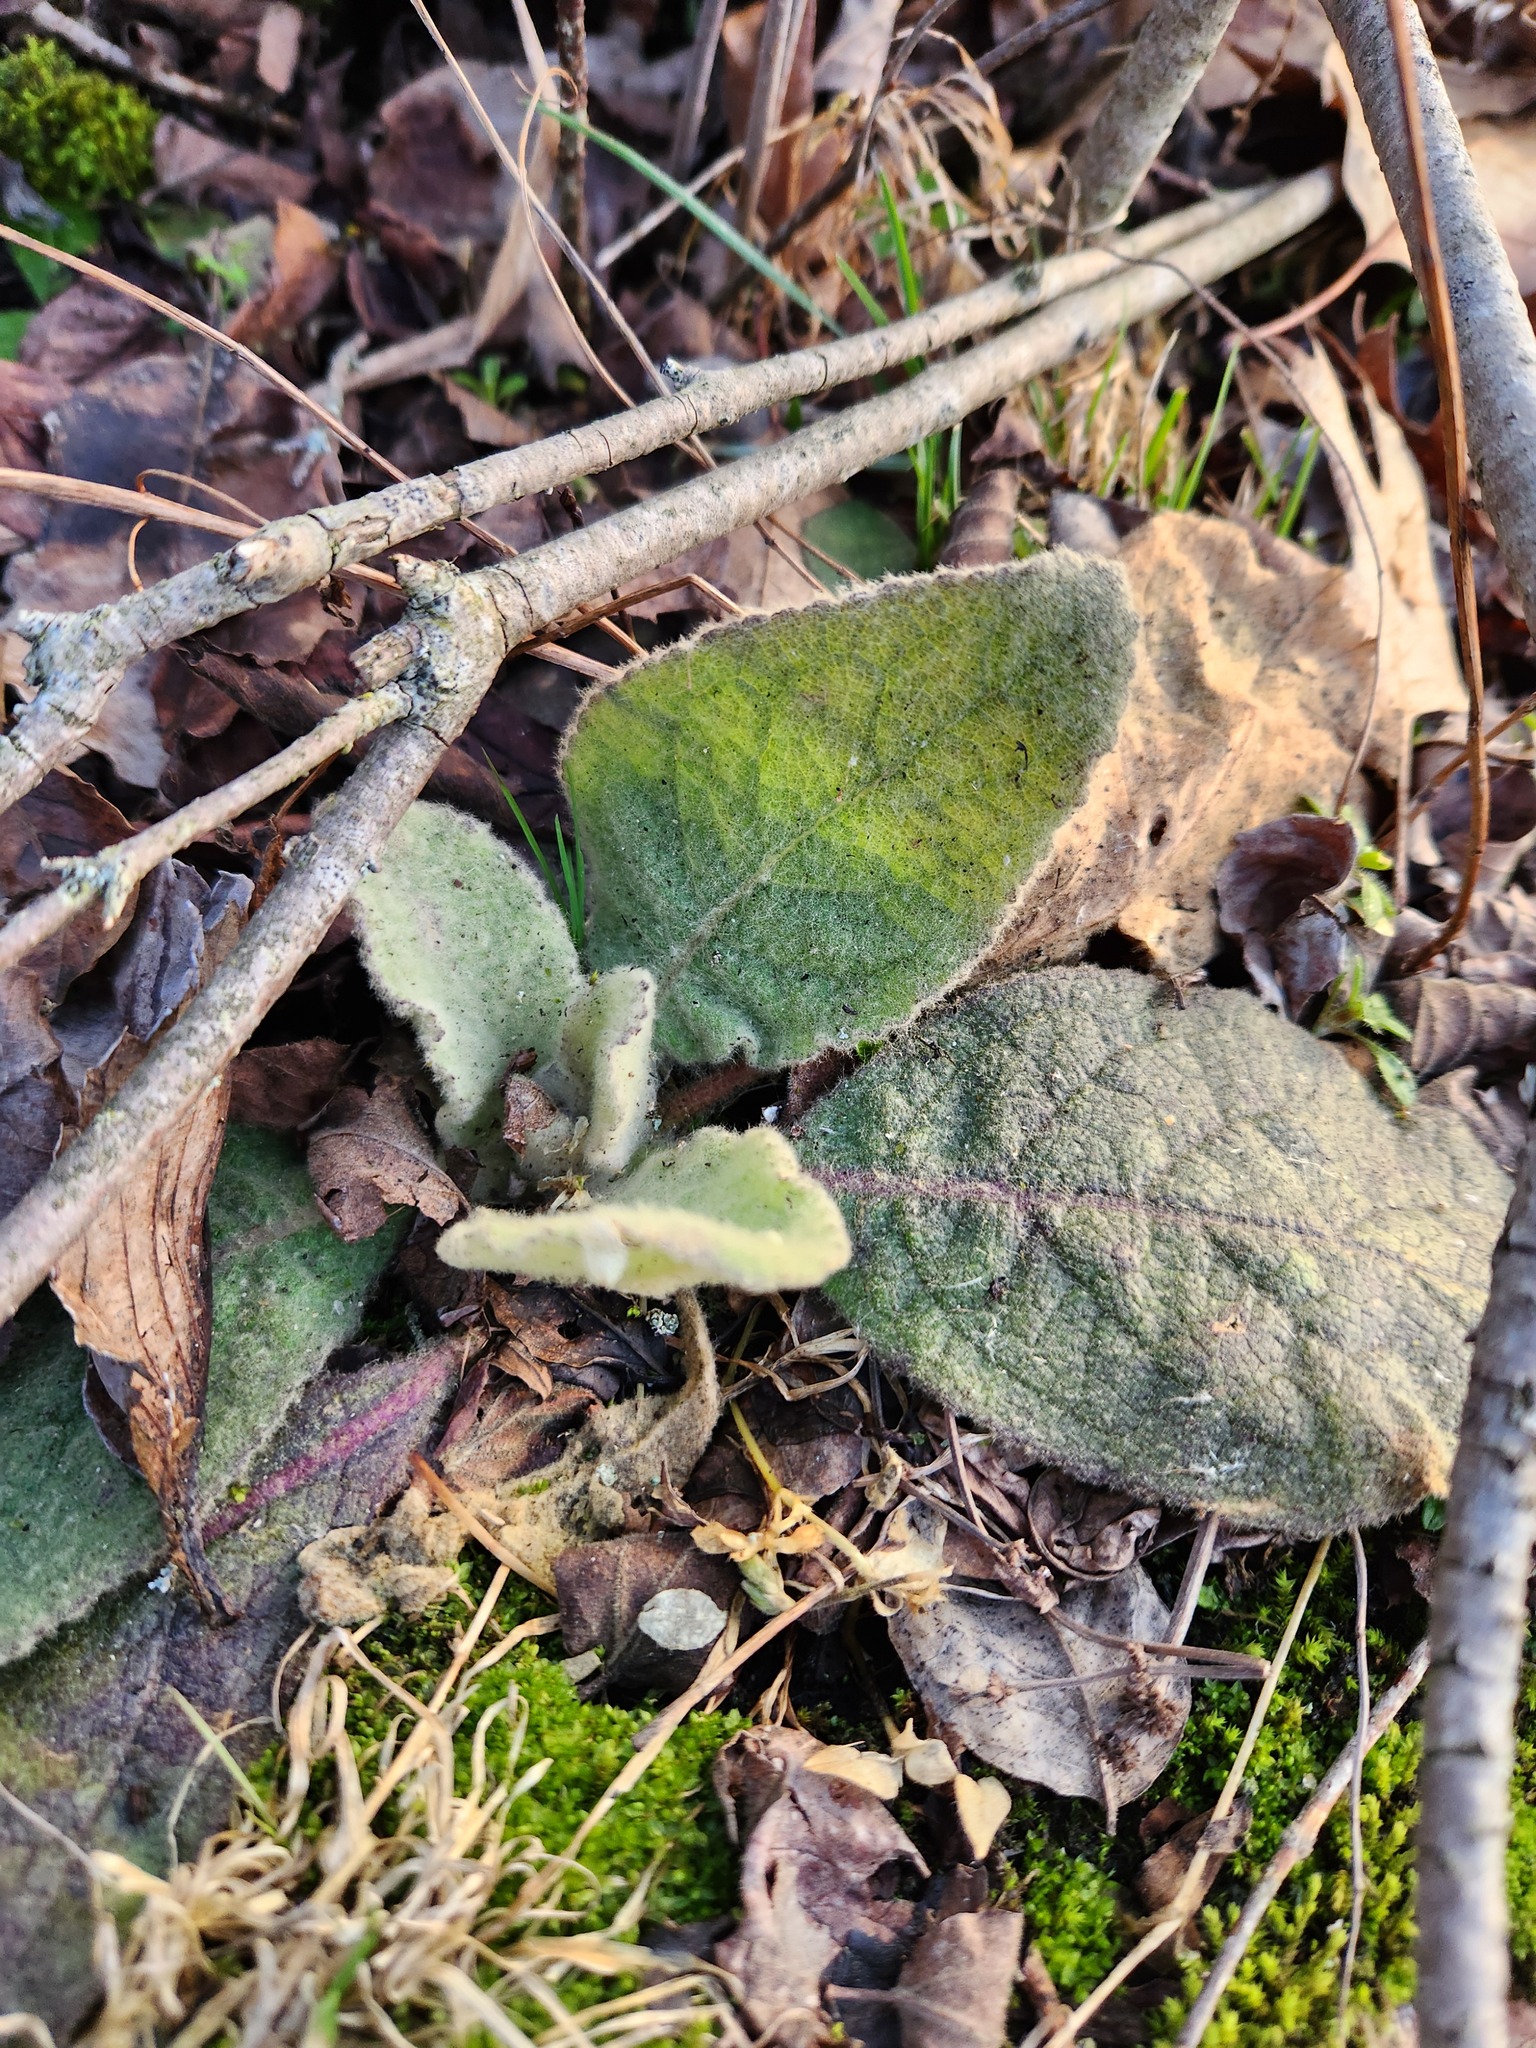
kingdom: Plantae
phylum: Tracheophyta
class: Magnoliopsida
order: Lamiales
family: Scrophulariaceae
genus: Verbascum
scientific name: Verbascum thapsus
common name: Common mullein
